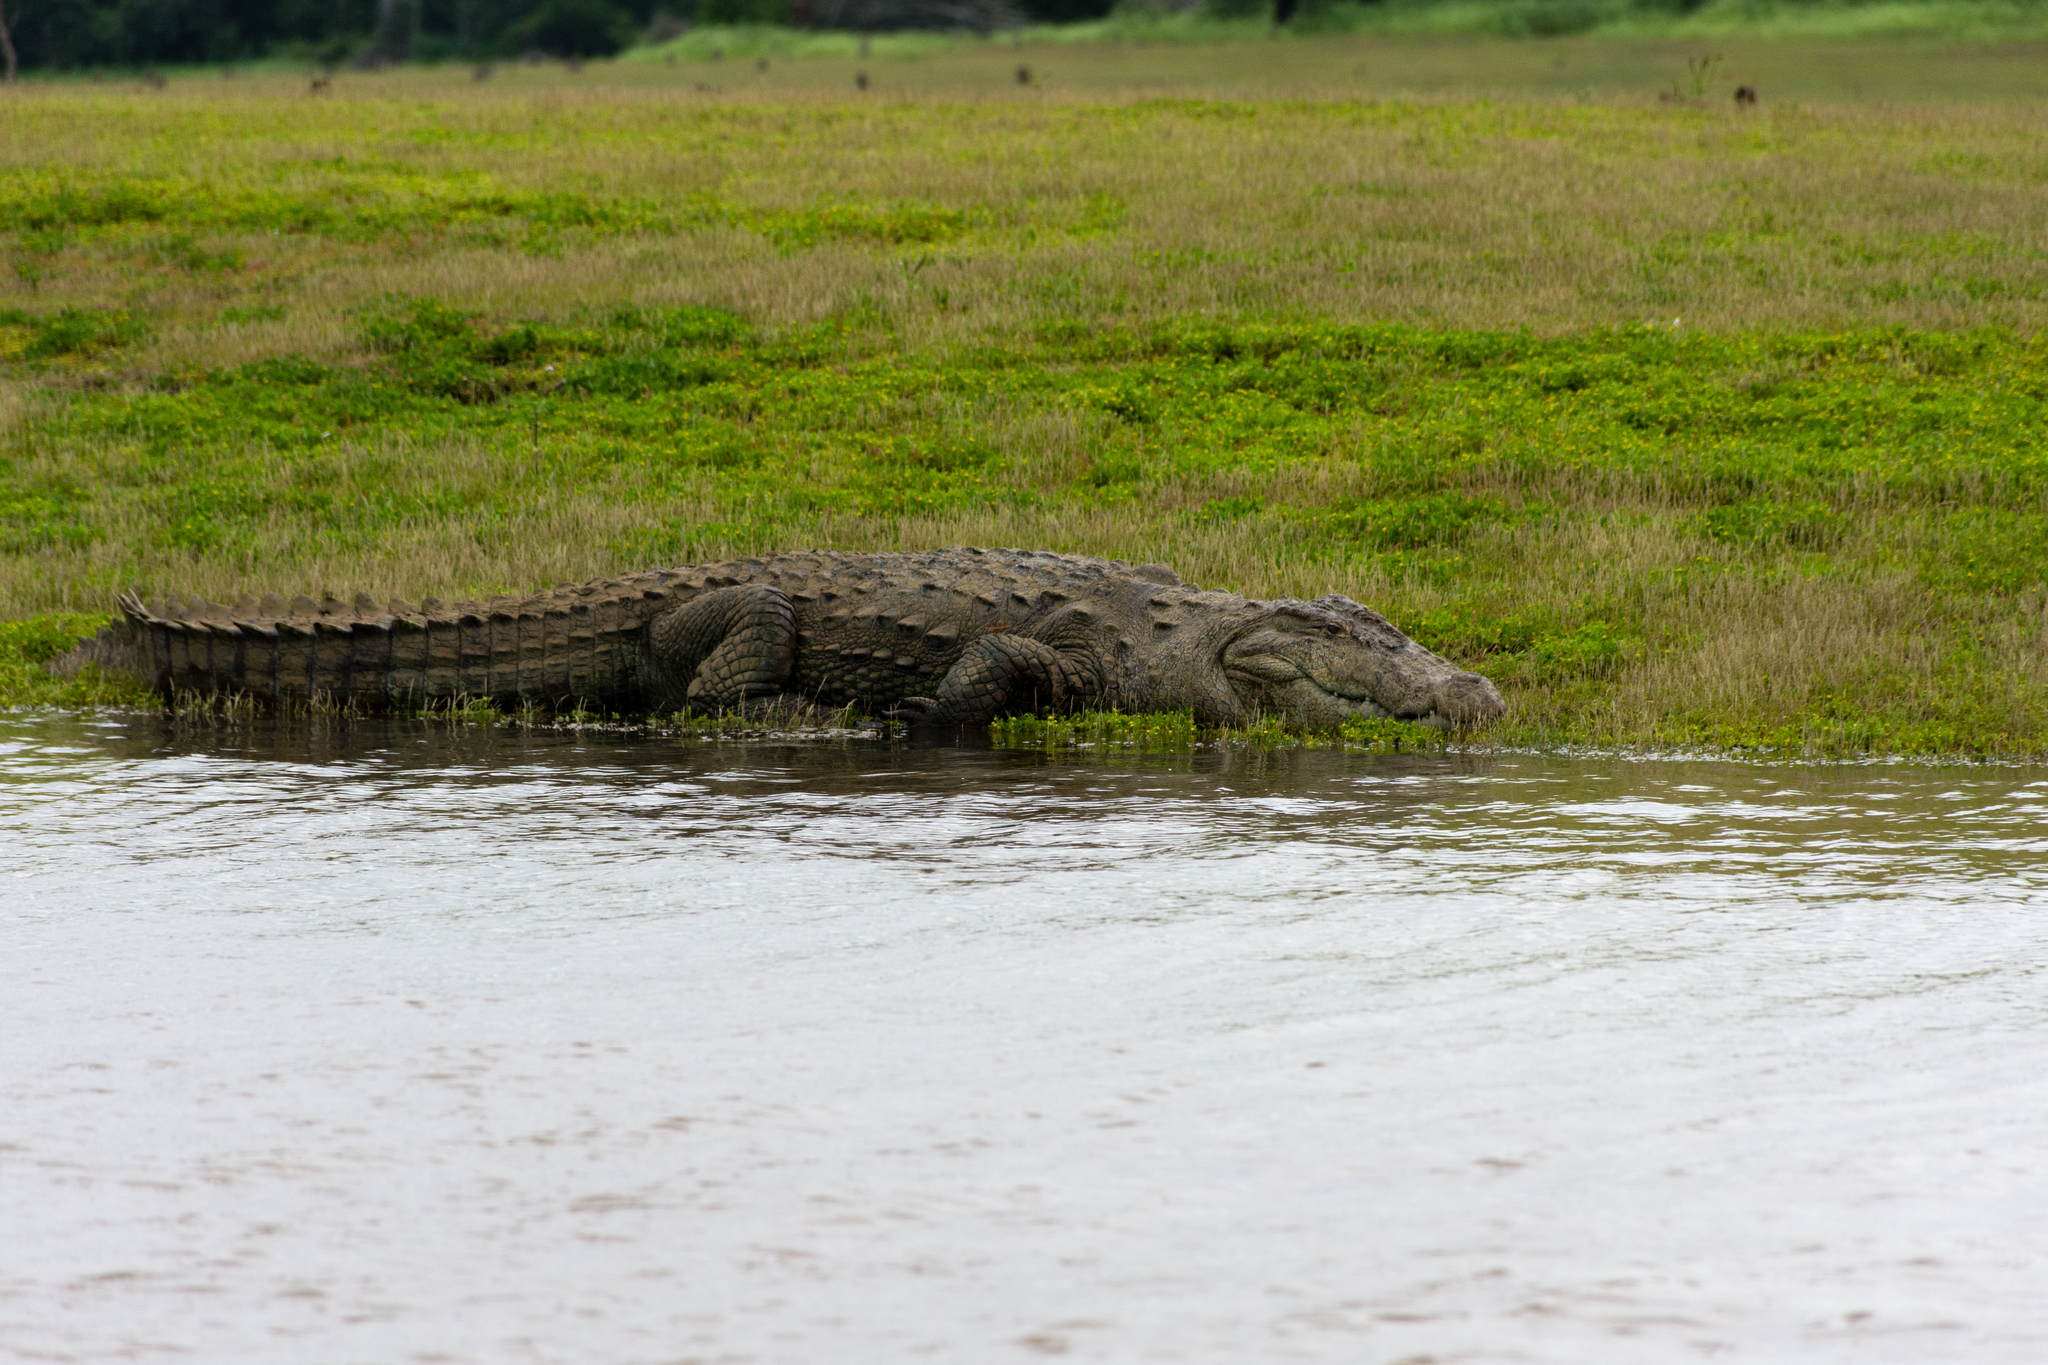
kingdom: Animalia
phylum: Chordata
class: Crocodylia
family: Crocodylidae
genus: Crocodylus
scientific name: Crocodylus palustris
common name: Mugger crocodile
